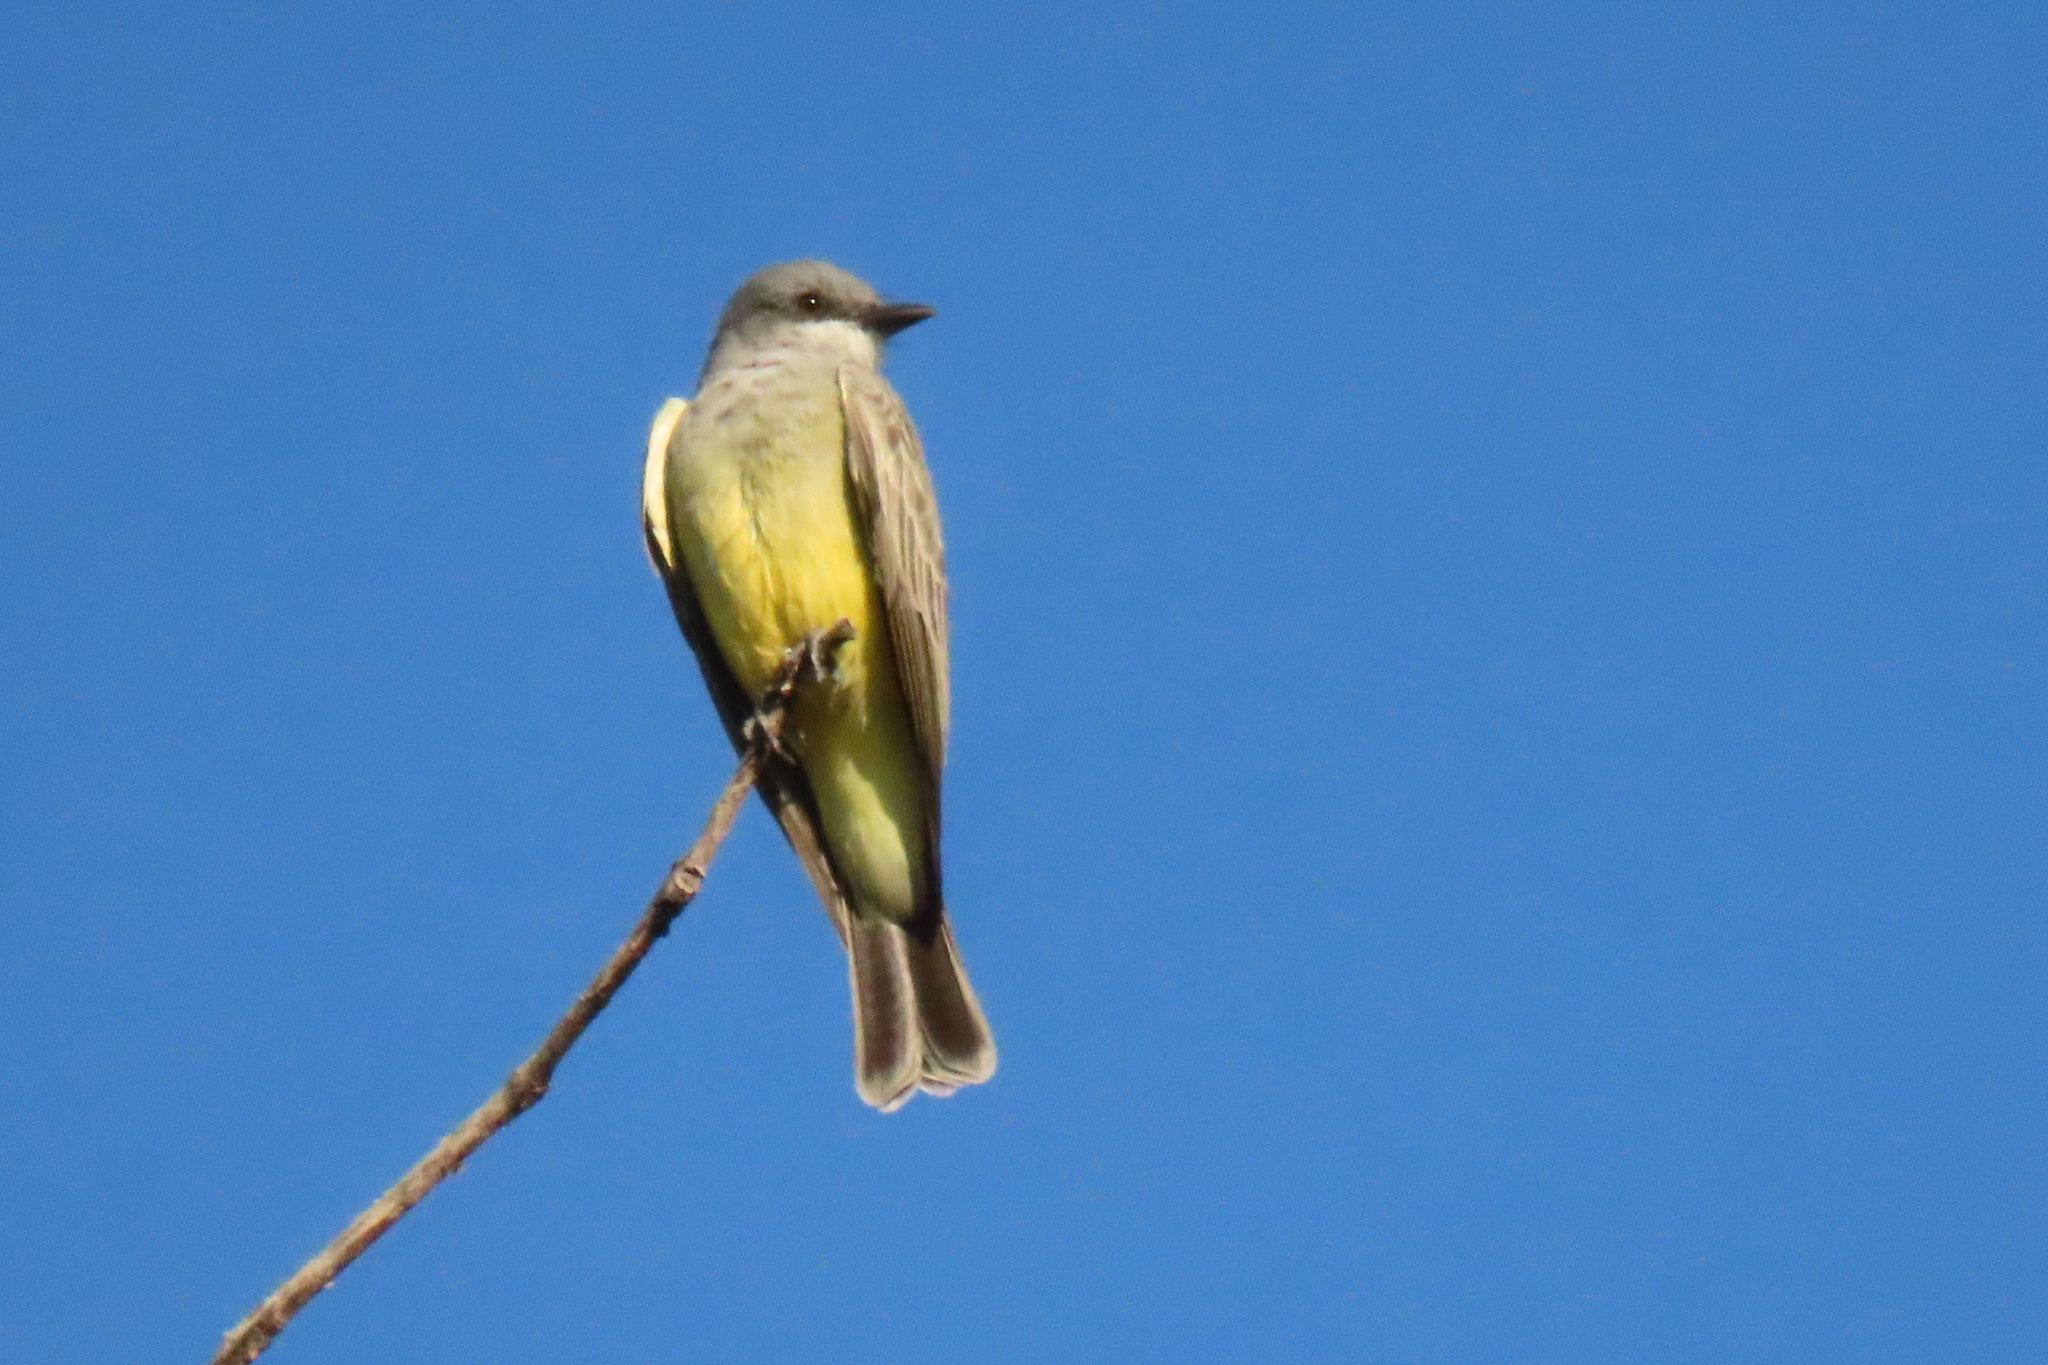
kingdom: Animalia
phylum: Chordata
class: Aves
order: Passeriformes
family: Tyrannidae
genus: Tyrannus
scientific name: Tyrannus vociferans
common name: Cassin's kingbird
